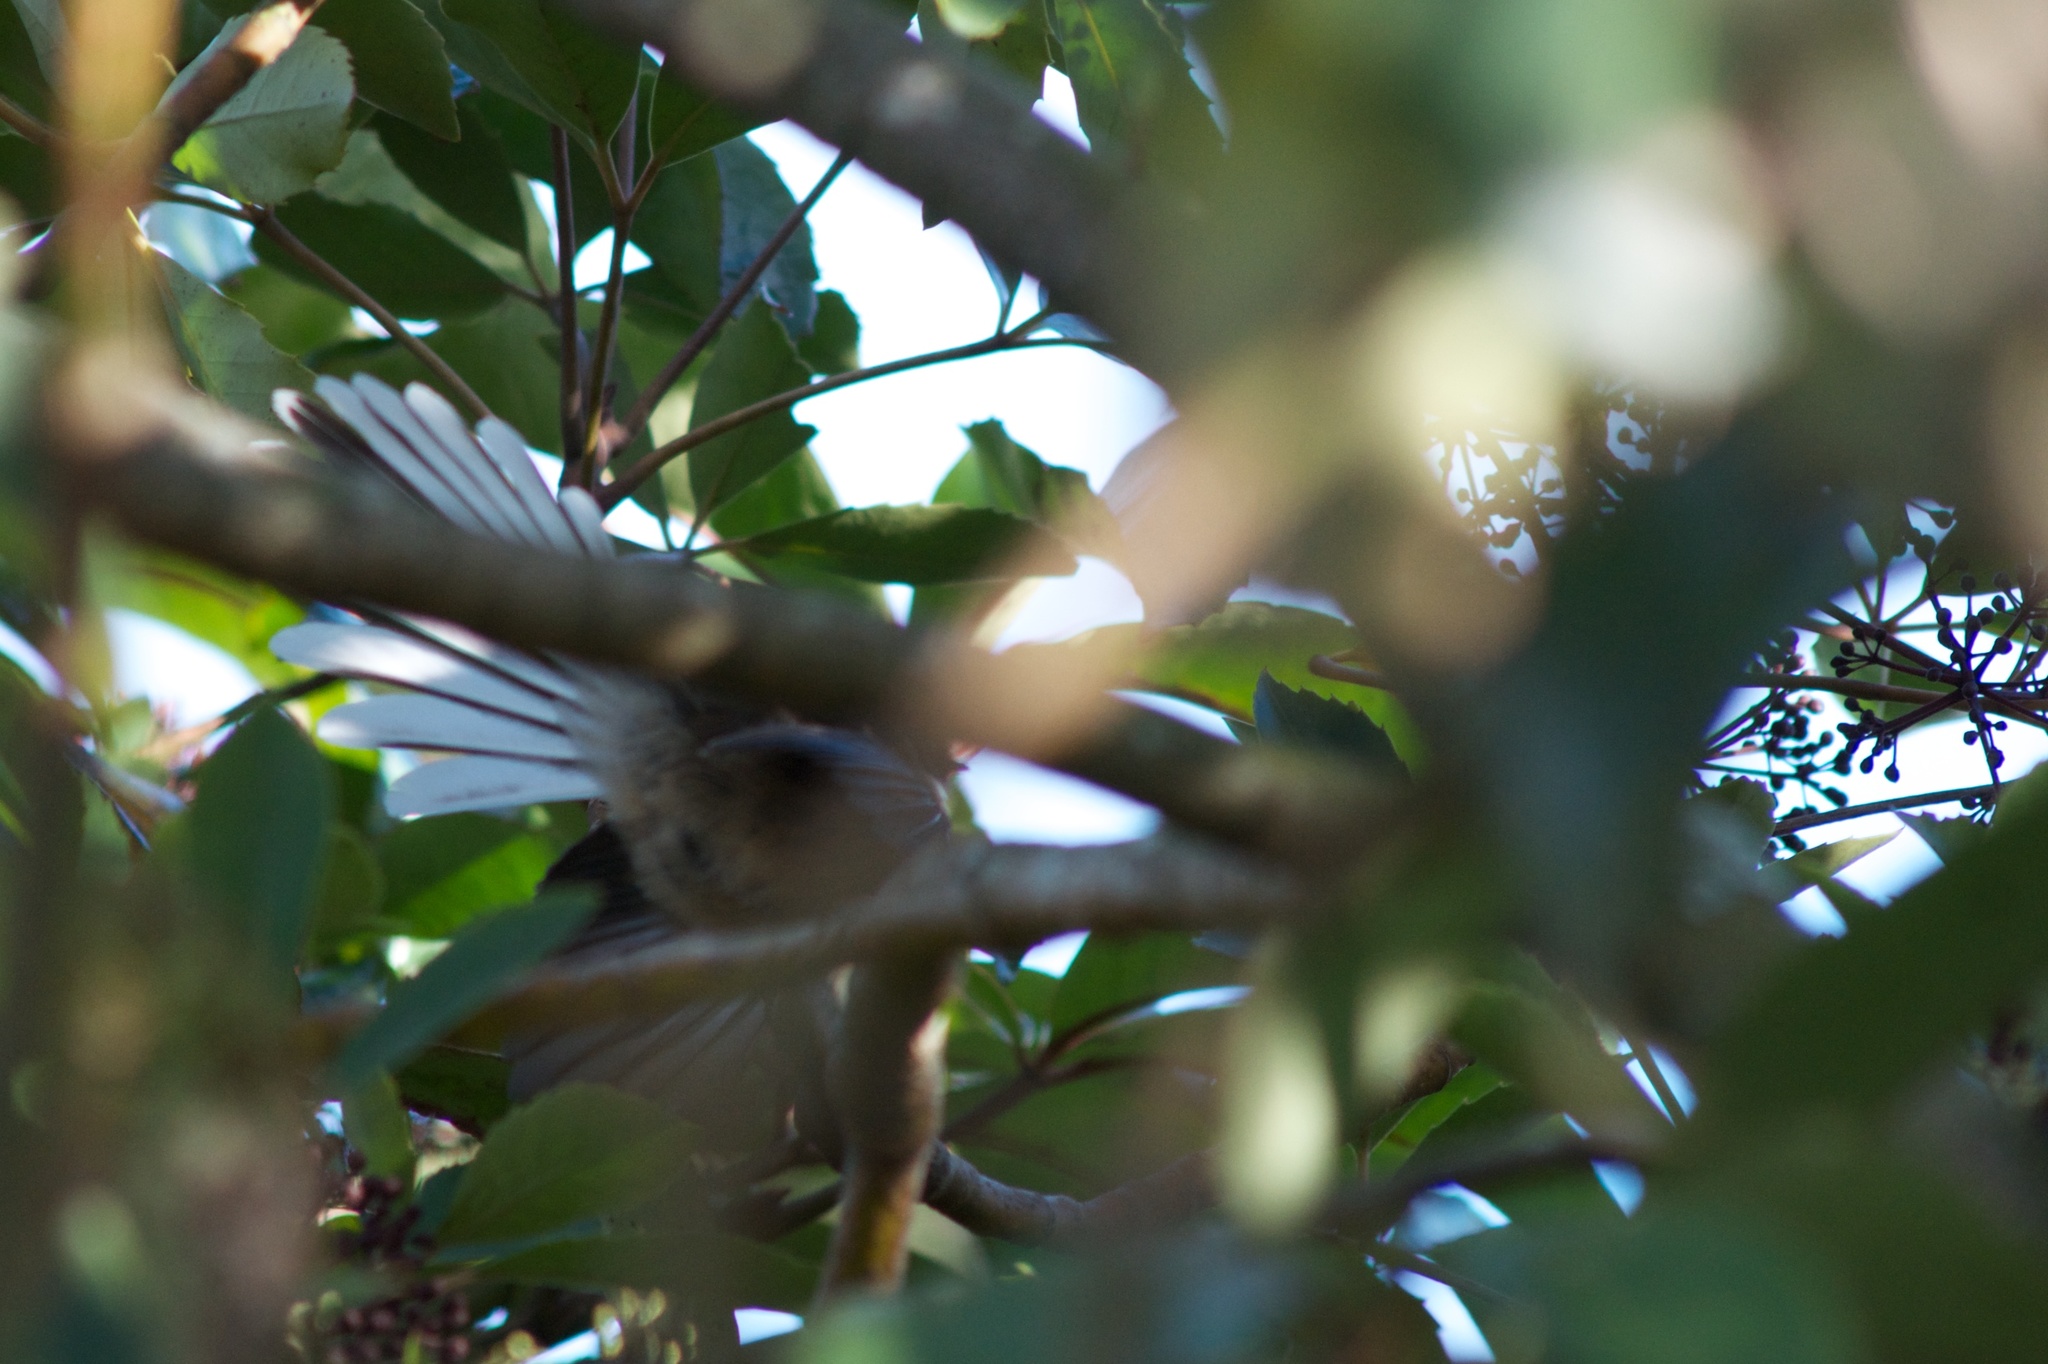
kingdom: Animalia
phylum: Chordata
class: Aves
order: Passeriformes
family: Rhipiduridae
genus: Rhipidura
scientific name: Rhipidura fuliginosa
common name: New zealand fantail
